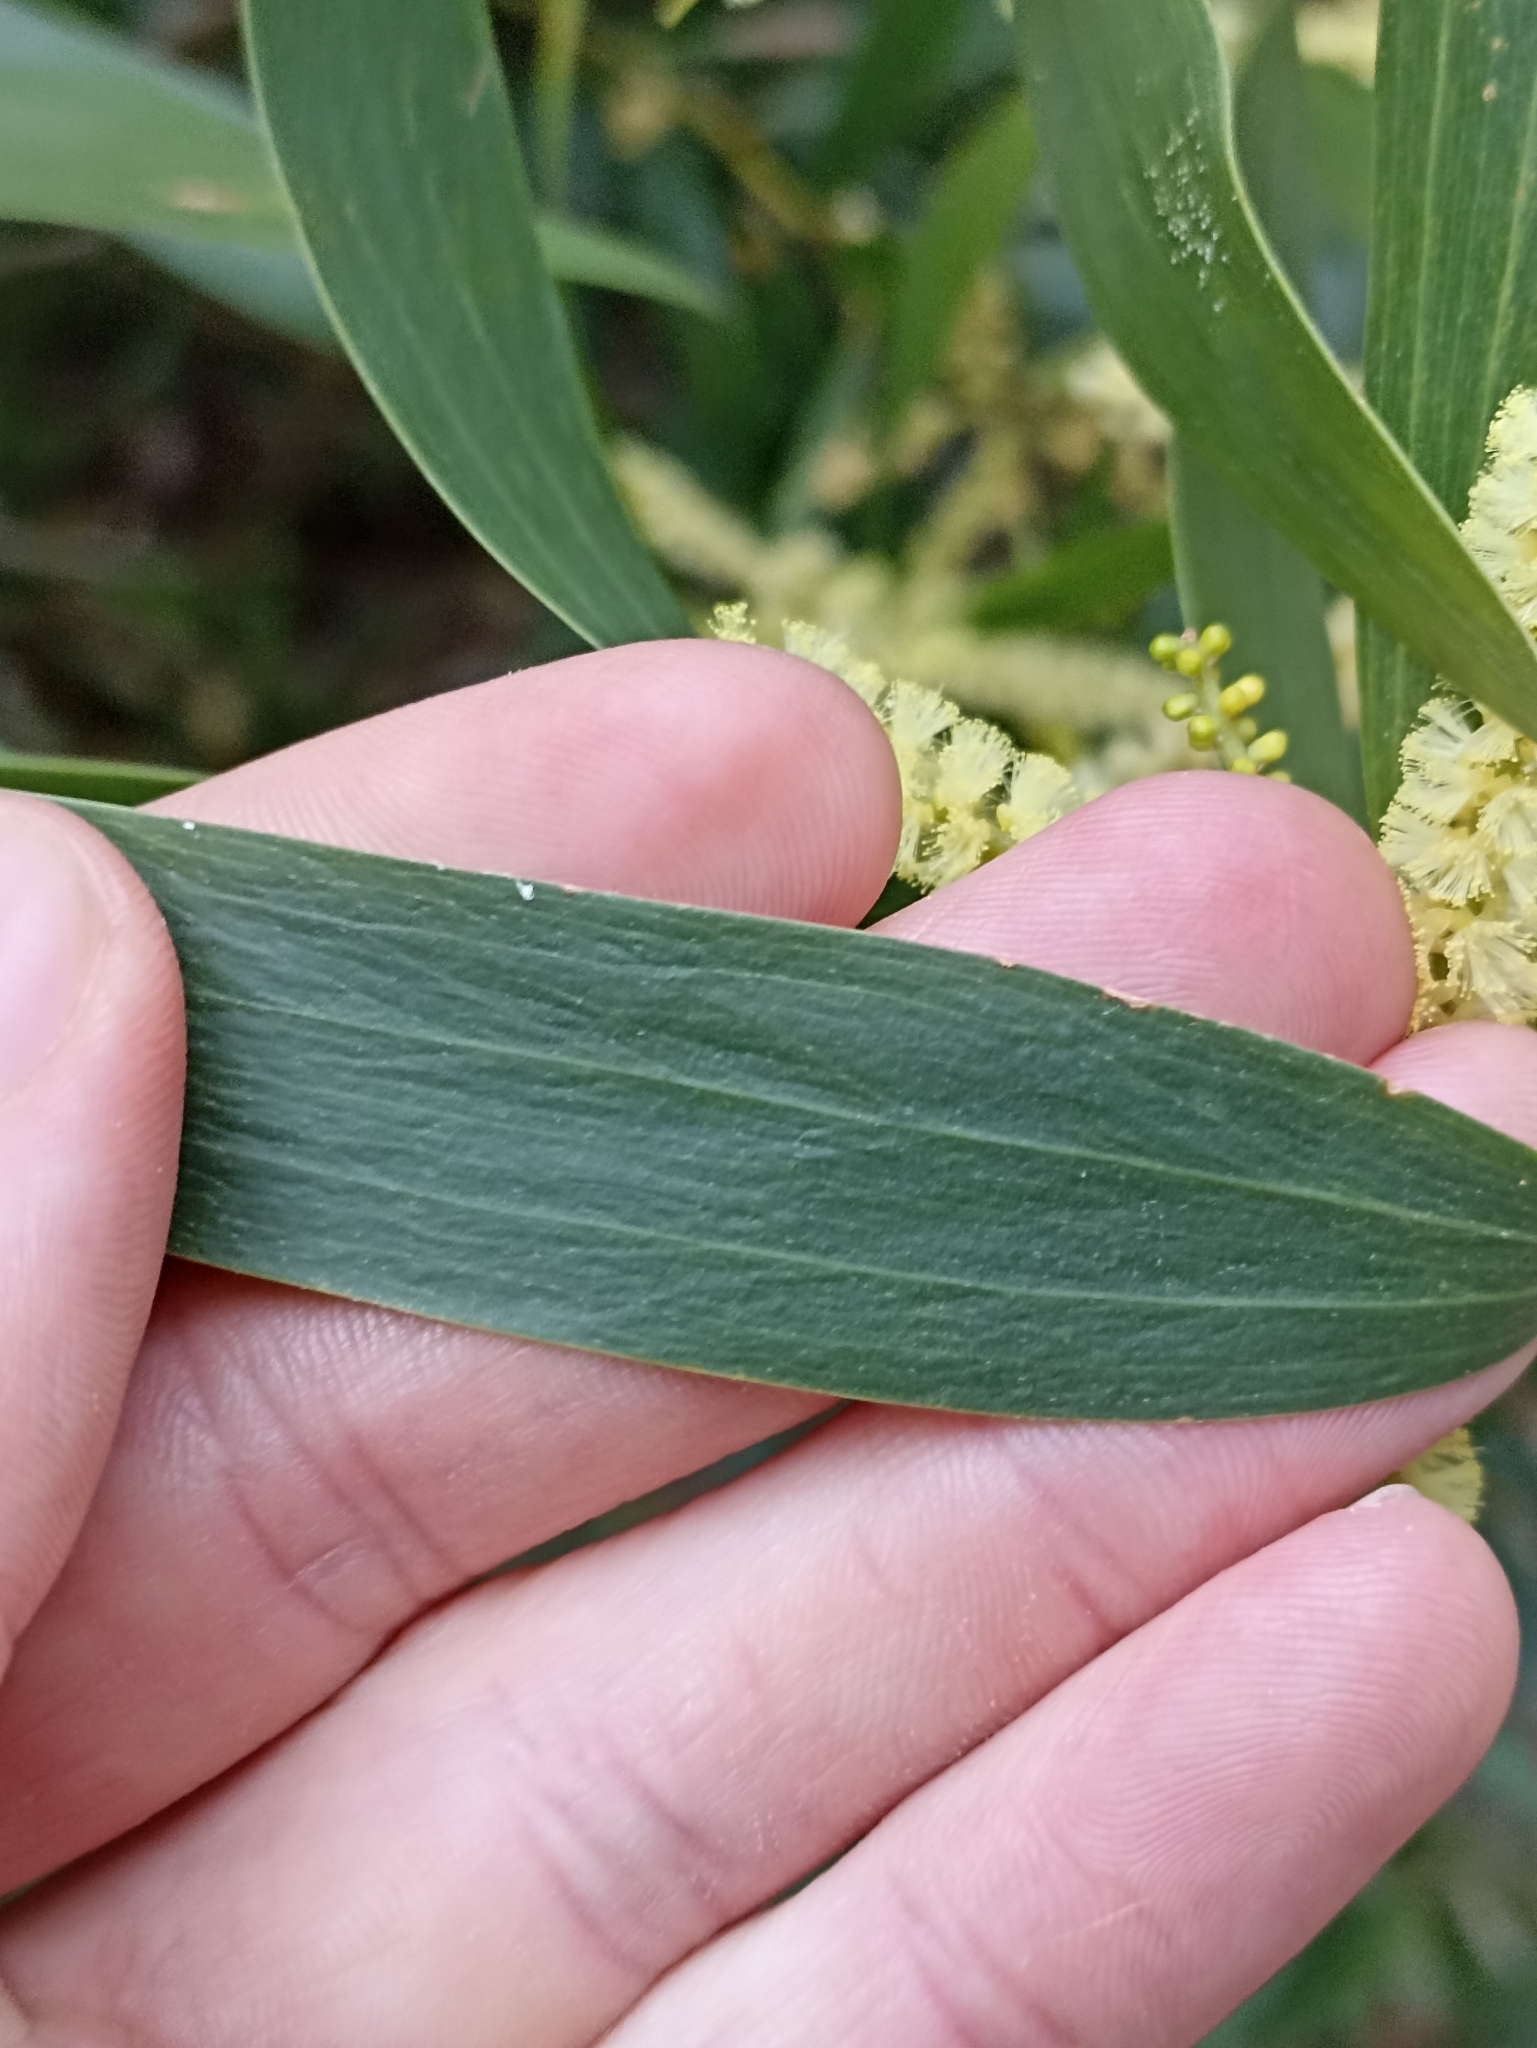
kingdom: Plantae
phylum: Tracheophyta
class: Magnoliopsida
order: Fabales
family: Fabaceae
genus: Acacia
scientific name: Acacia longifolia
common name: Sydney golden wattle
